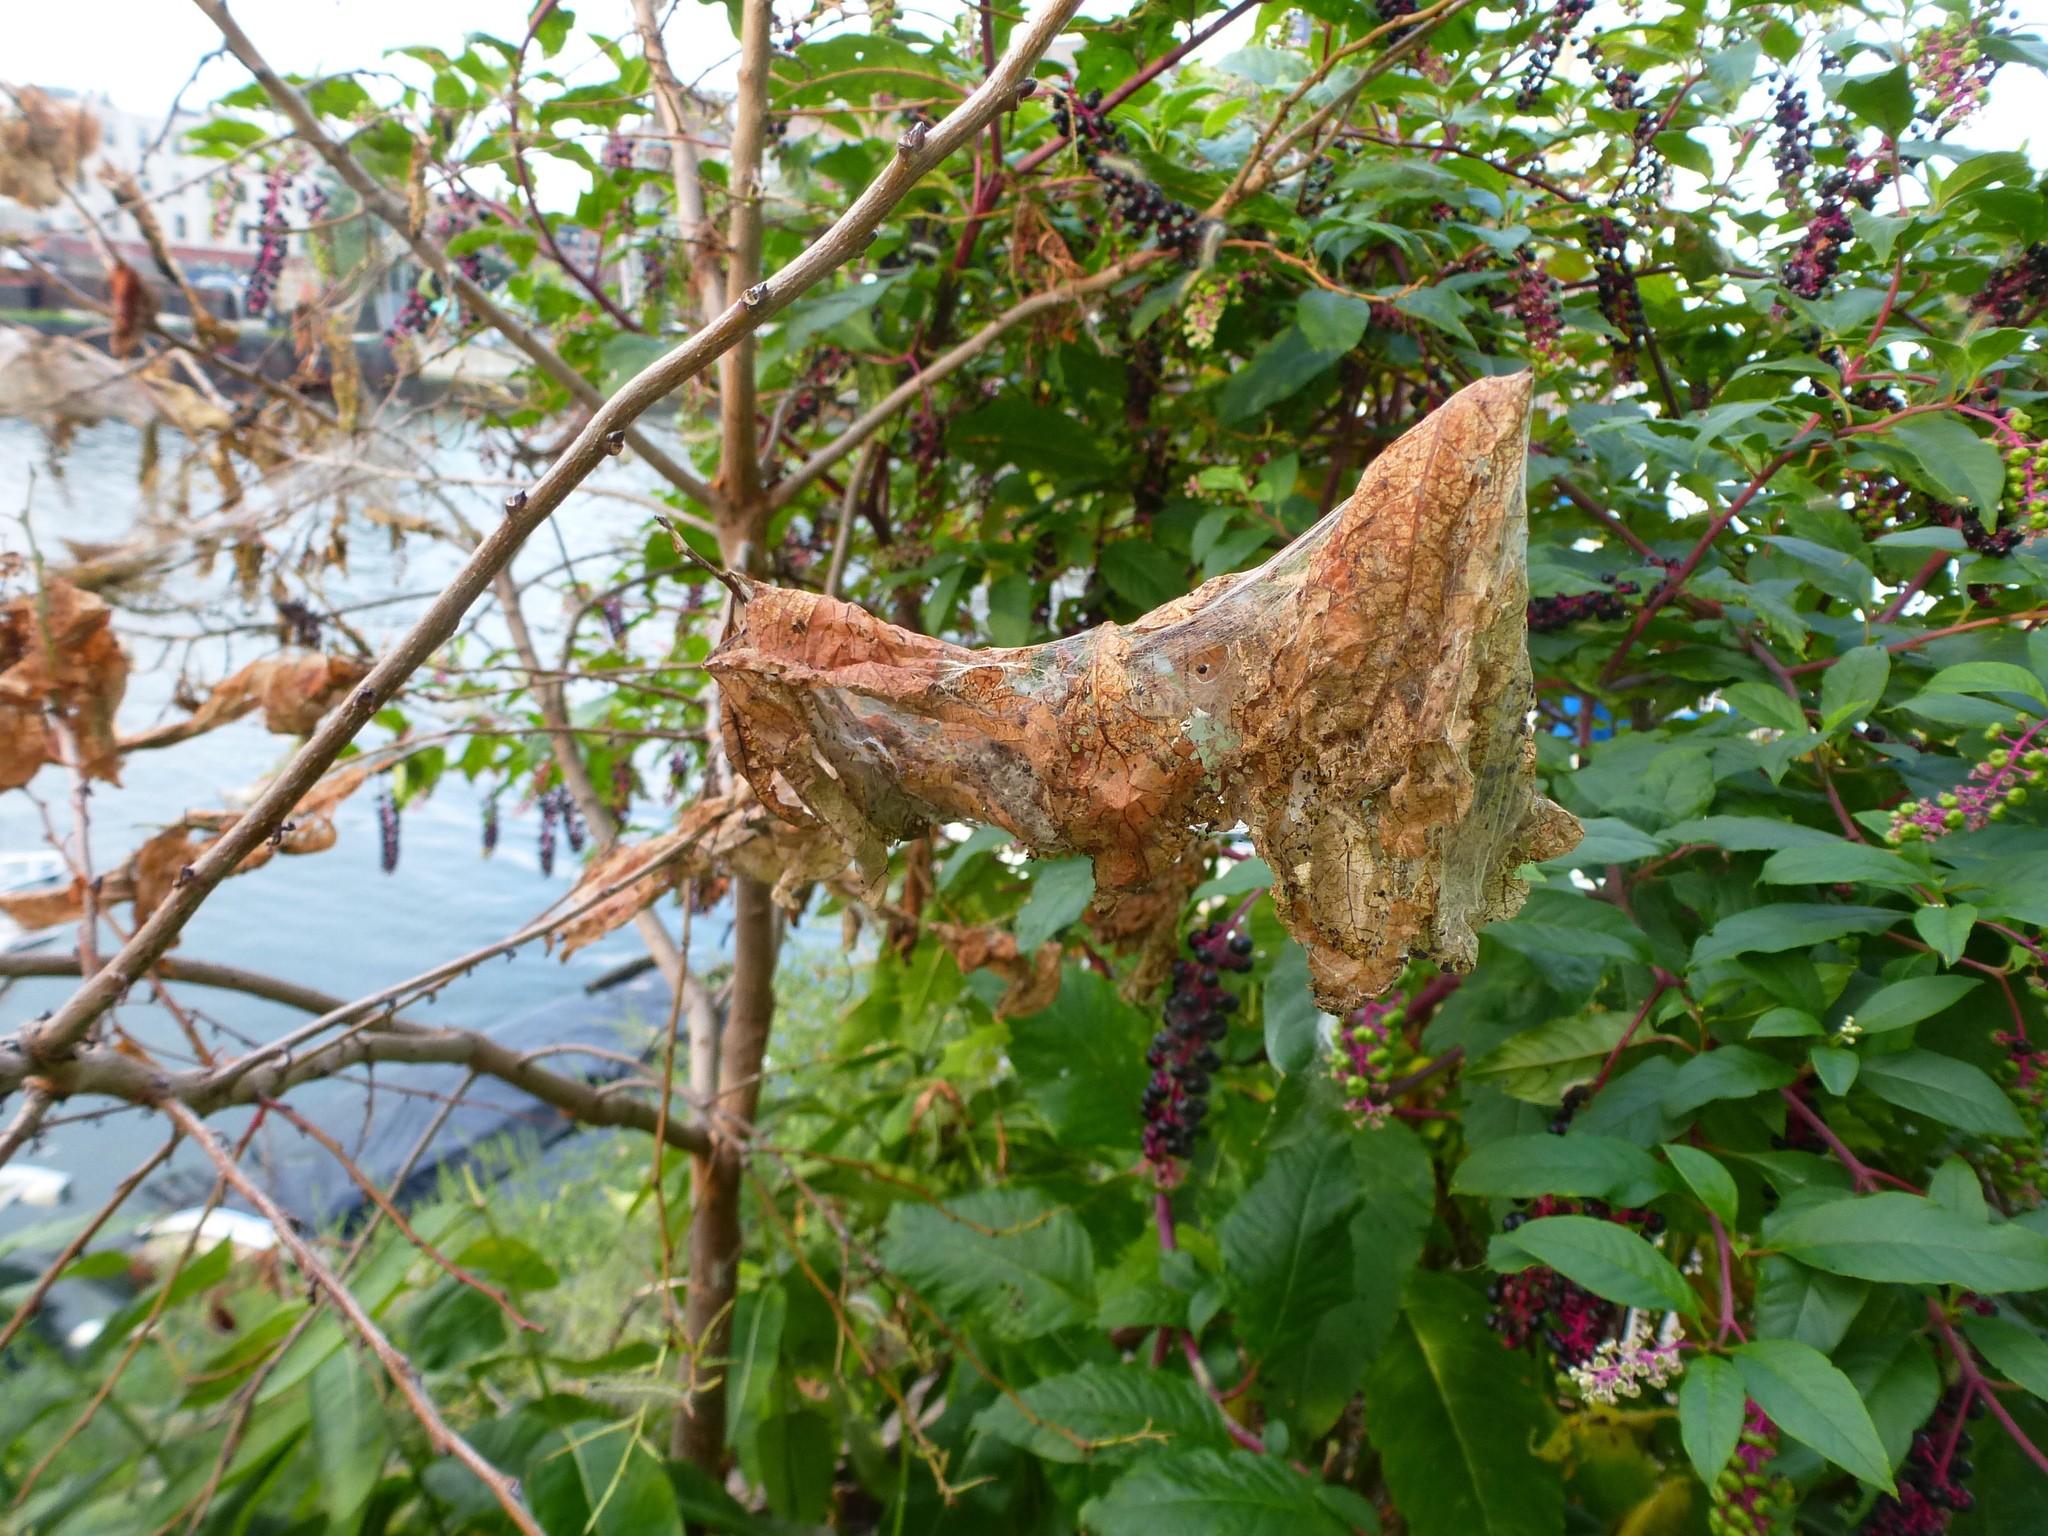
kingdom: Animalia
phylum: Arthropoda
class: Insecta
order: Lepidoptera
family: Erebidae
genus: Hyphantria
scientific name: Hyphantria cunea
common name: American white moth
